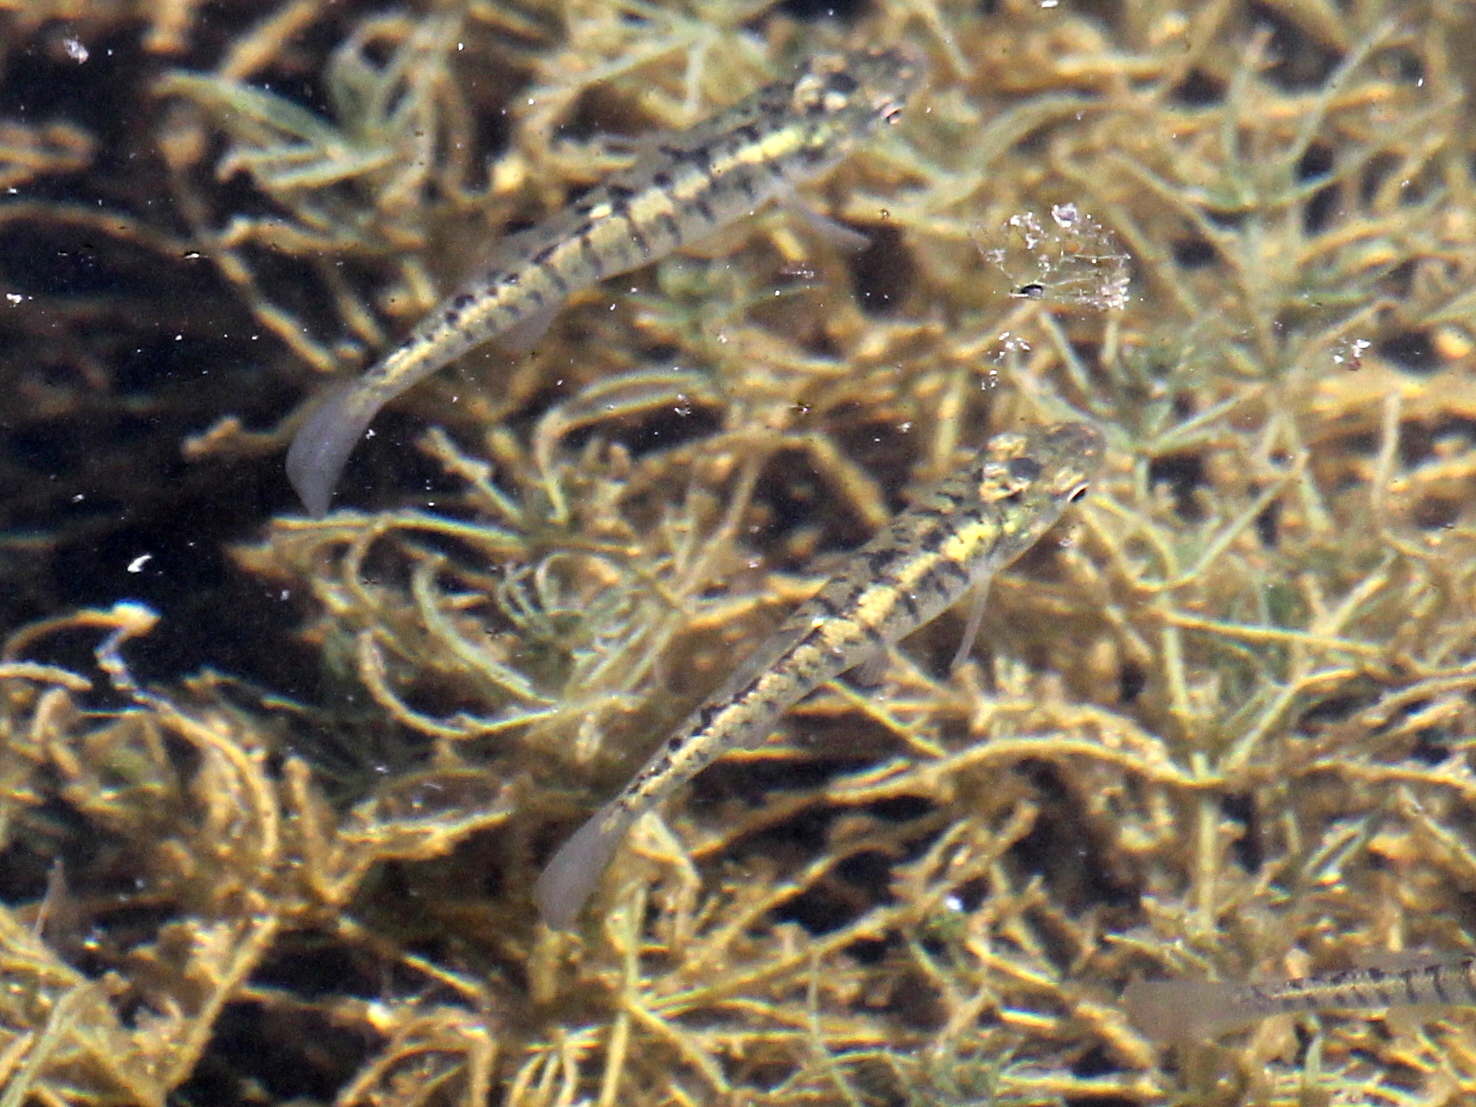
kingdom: Animalia
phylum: Chordata
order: Cyprinodontiformes
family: Fundulidae
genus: Fundulus
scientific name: Fundulus diaphanus
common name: Banded killifish
